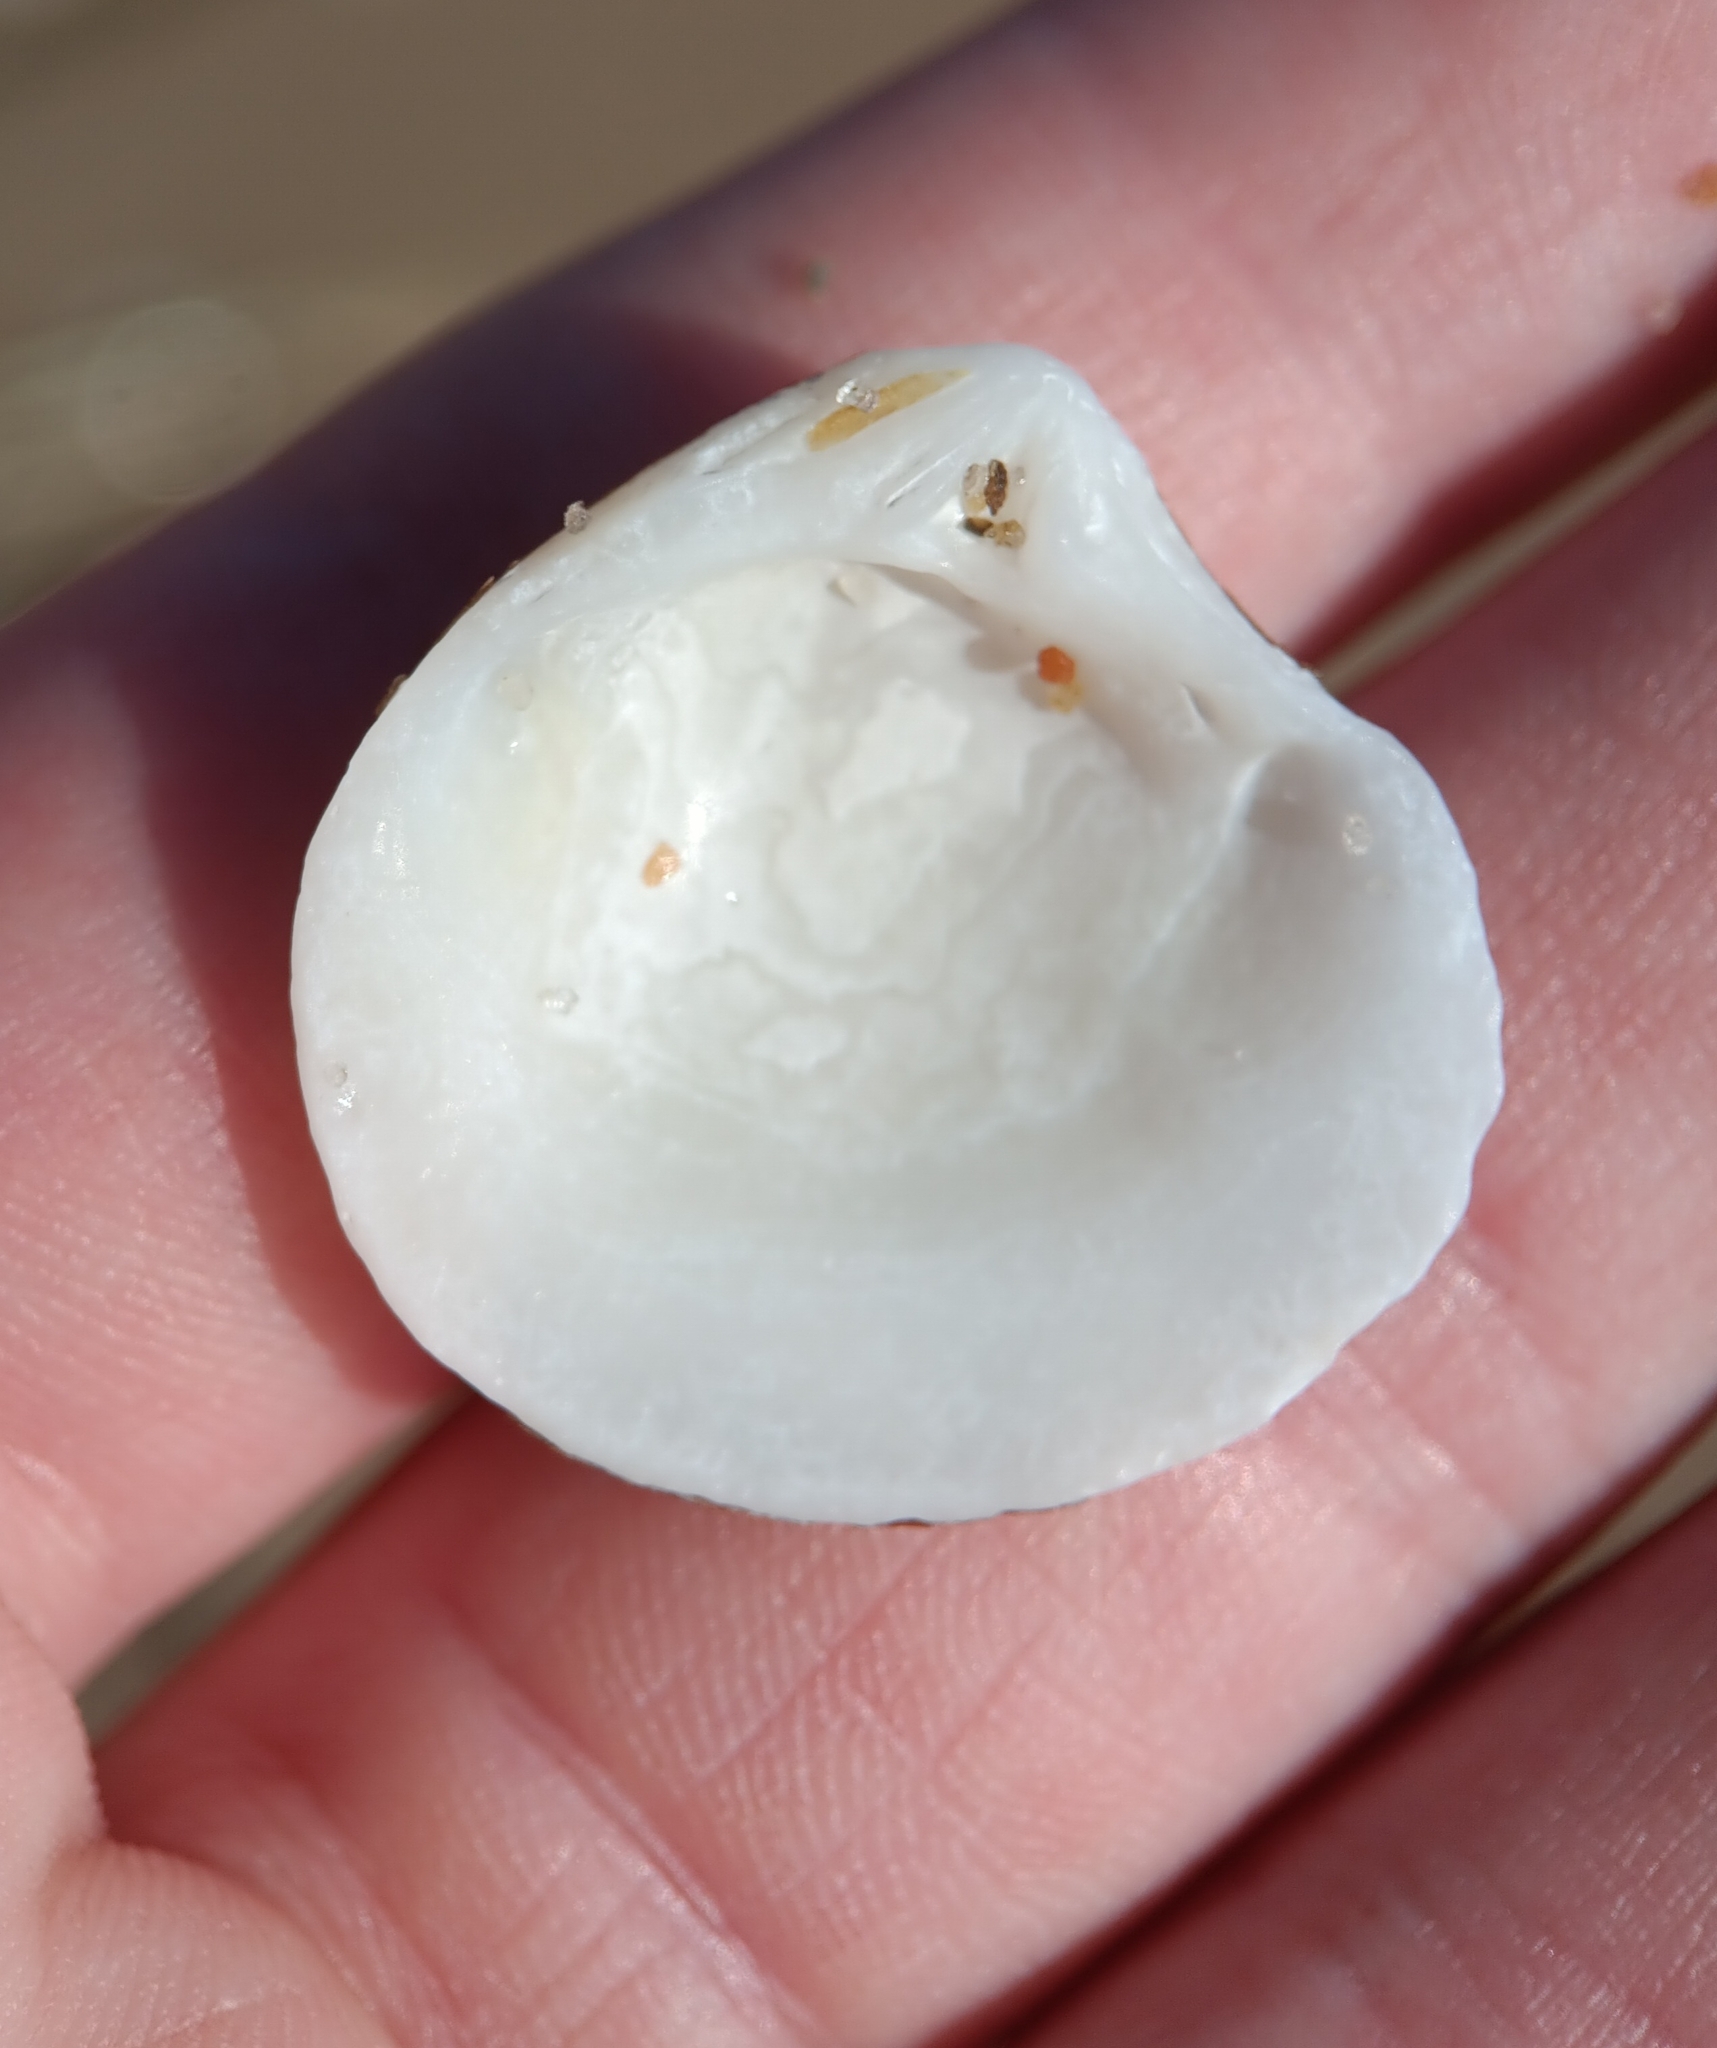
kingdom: Animalia
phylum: Mollusca
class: Bivalvia
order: Cardiida
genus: Isocrassina
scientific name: Isocrassina
